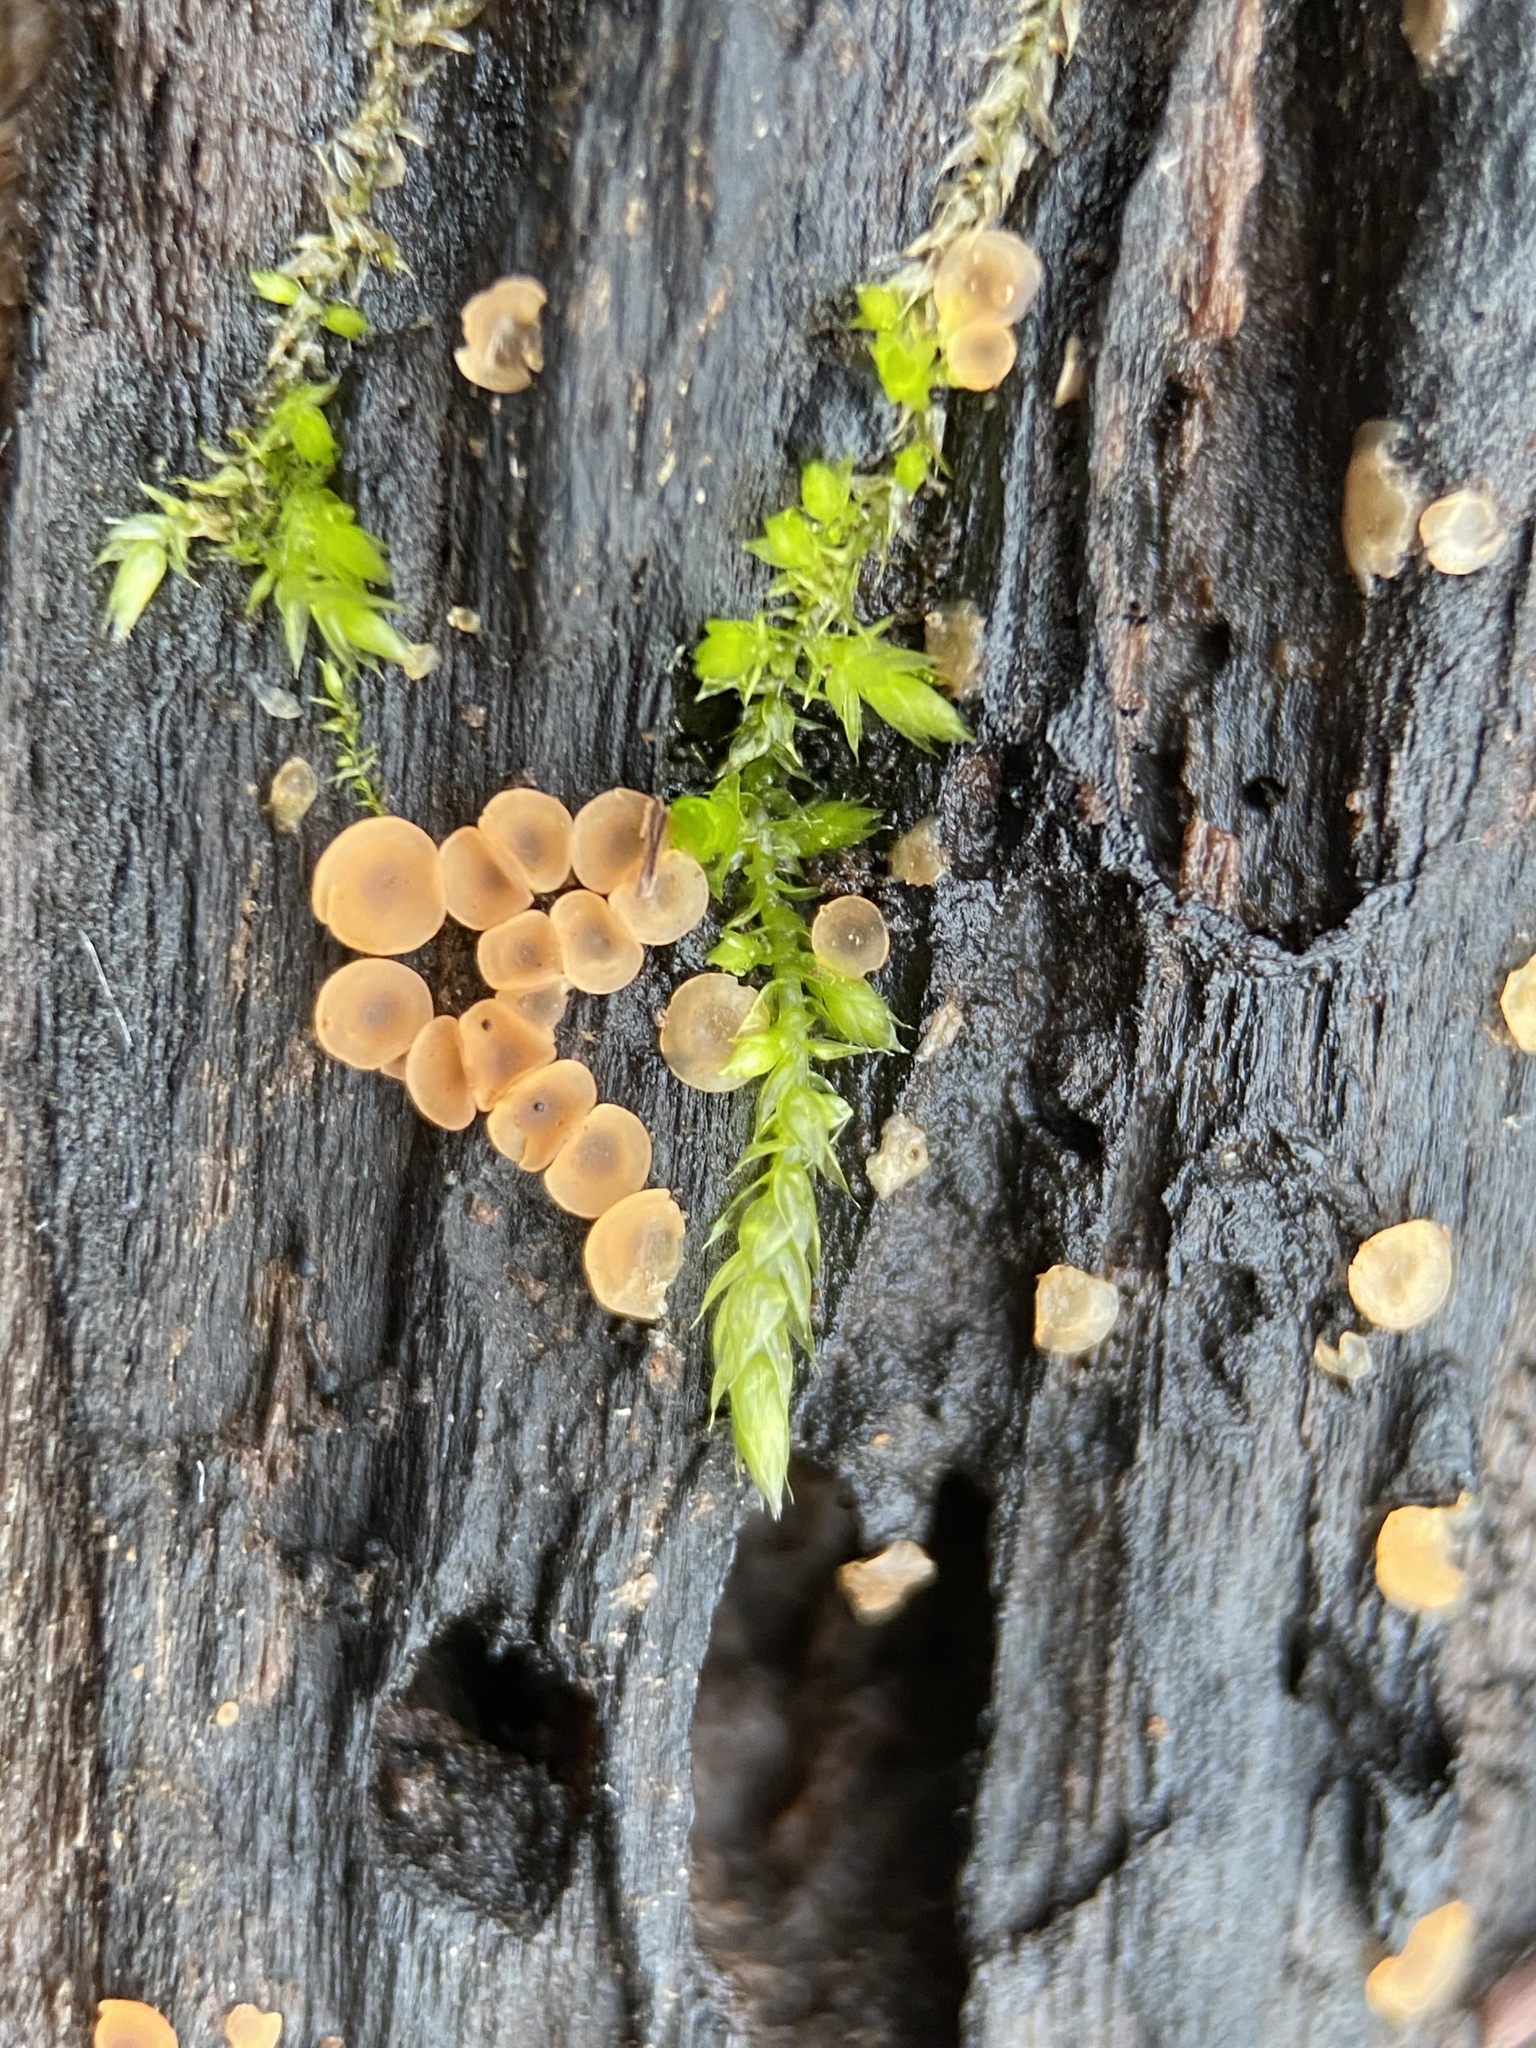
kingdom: Fungi
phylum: Ascomycota
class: Orbiliomycetes
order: Orbiliales
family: Orbiliaceae
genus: Orbilia
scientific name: Orbilia
